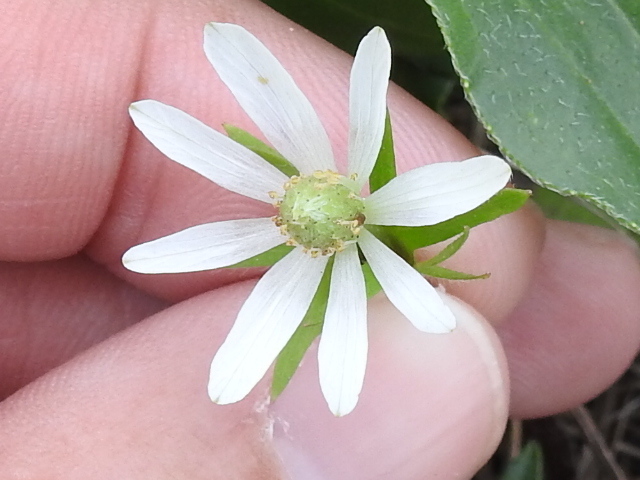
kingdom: Plantae
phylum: Tracheophyta
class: Magnoliopsida
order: Ranunculales
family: Ranunculaceae
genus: Anemone
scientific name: Anemone berlandieri
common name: Ten-petal anemone
